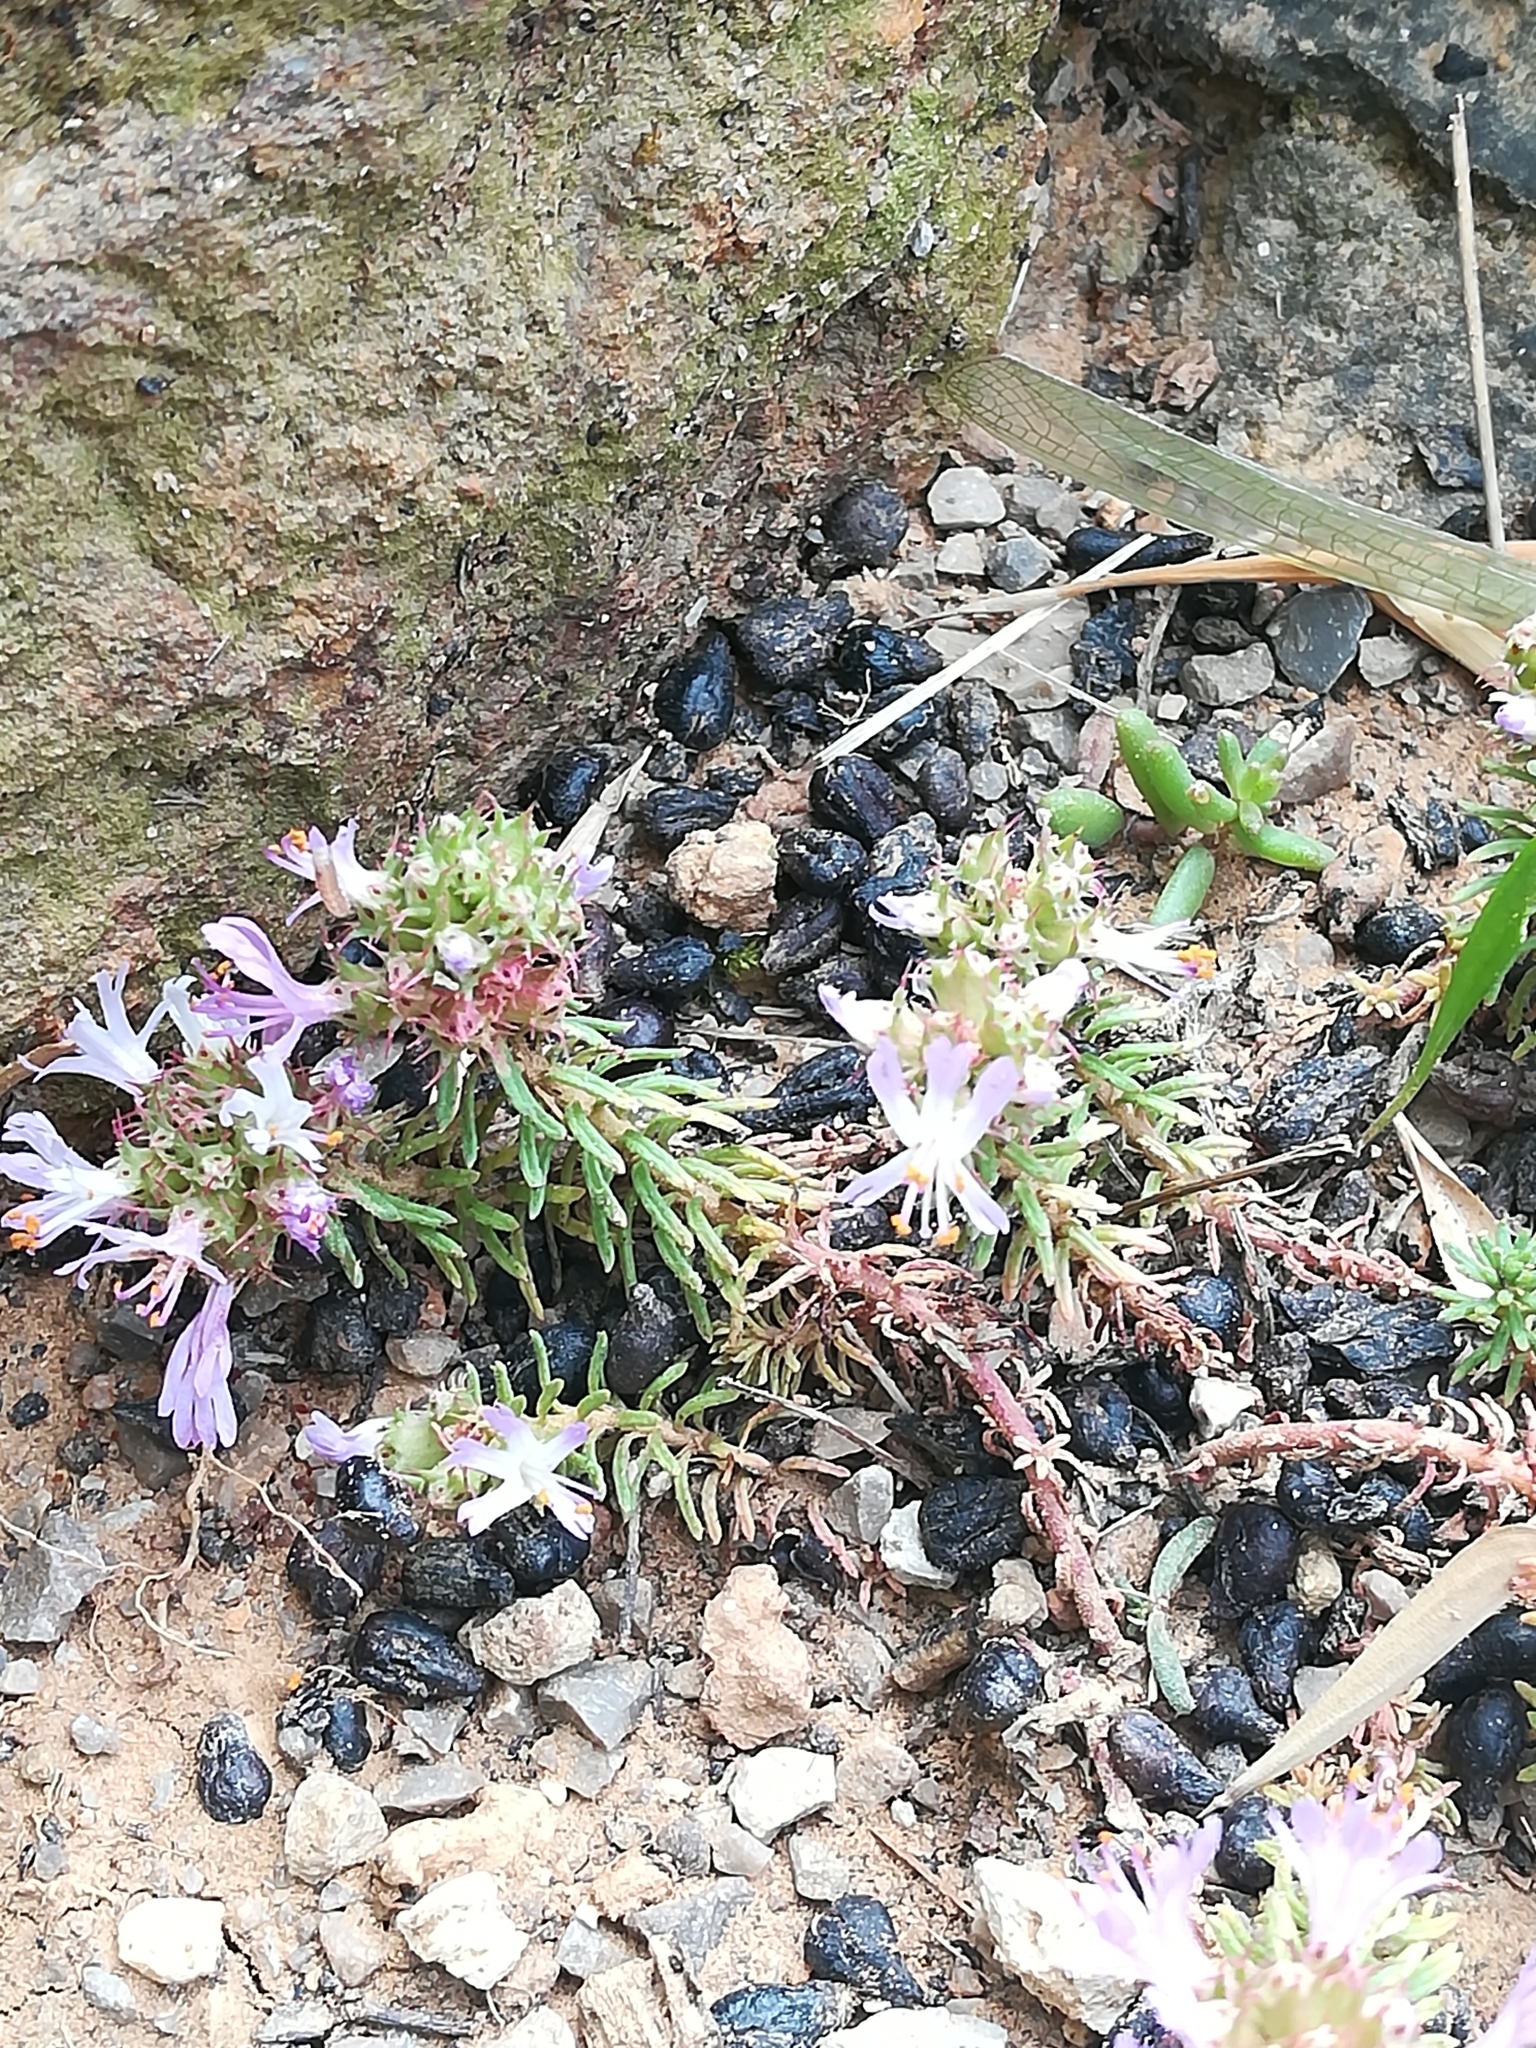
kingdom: Plantae
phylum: Tracheophyta
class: Magnoliopsida
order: Ericales
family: Primulaceae
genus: Coris
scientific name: Coris monspeliensis
